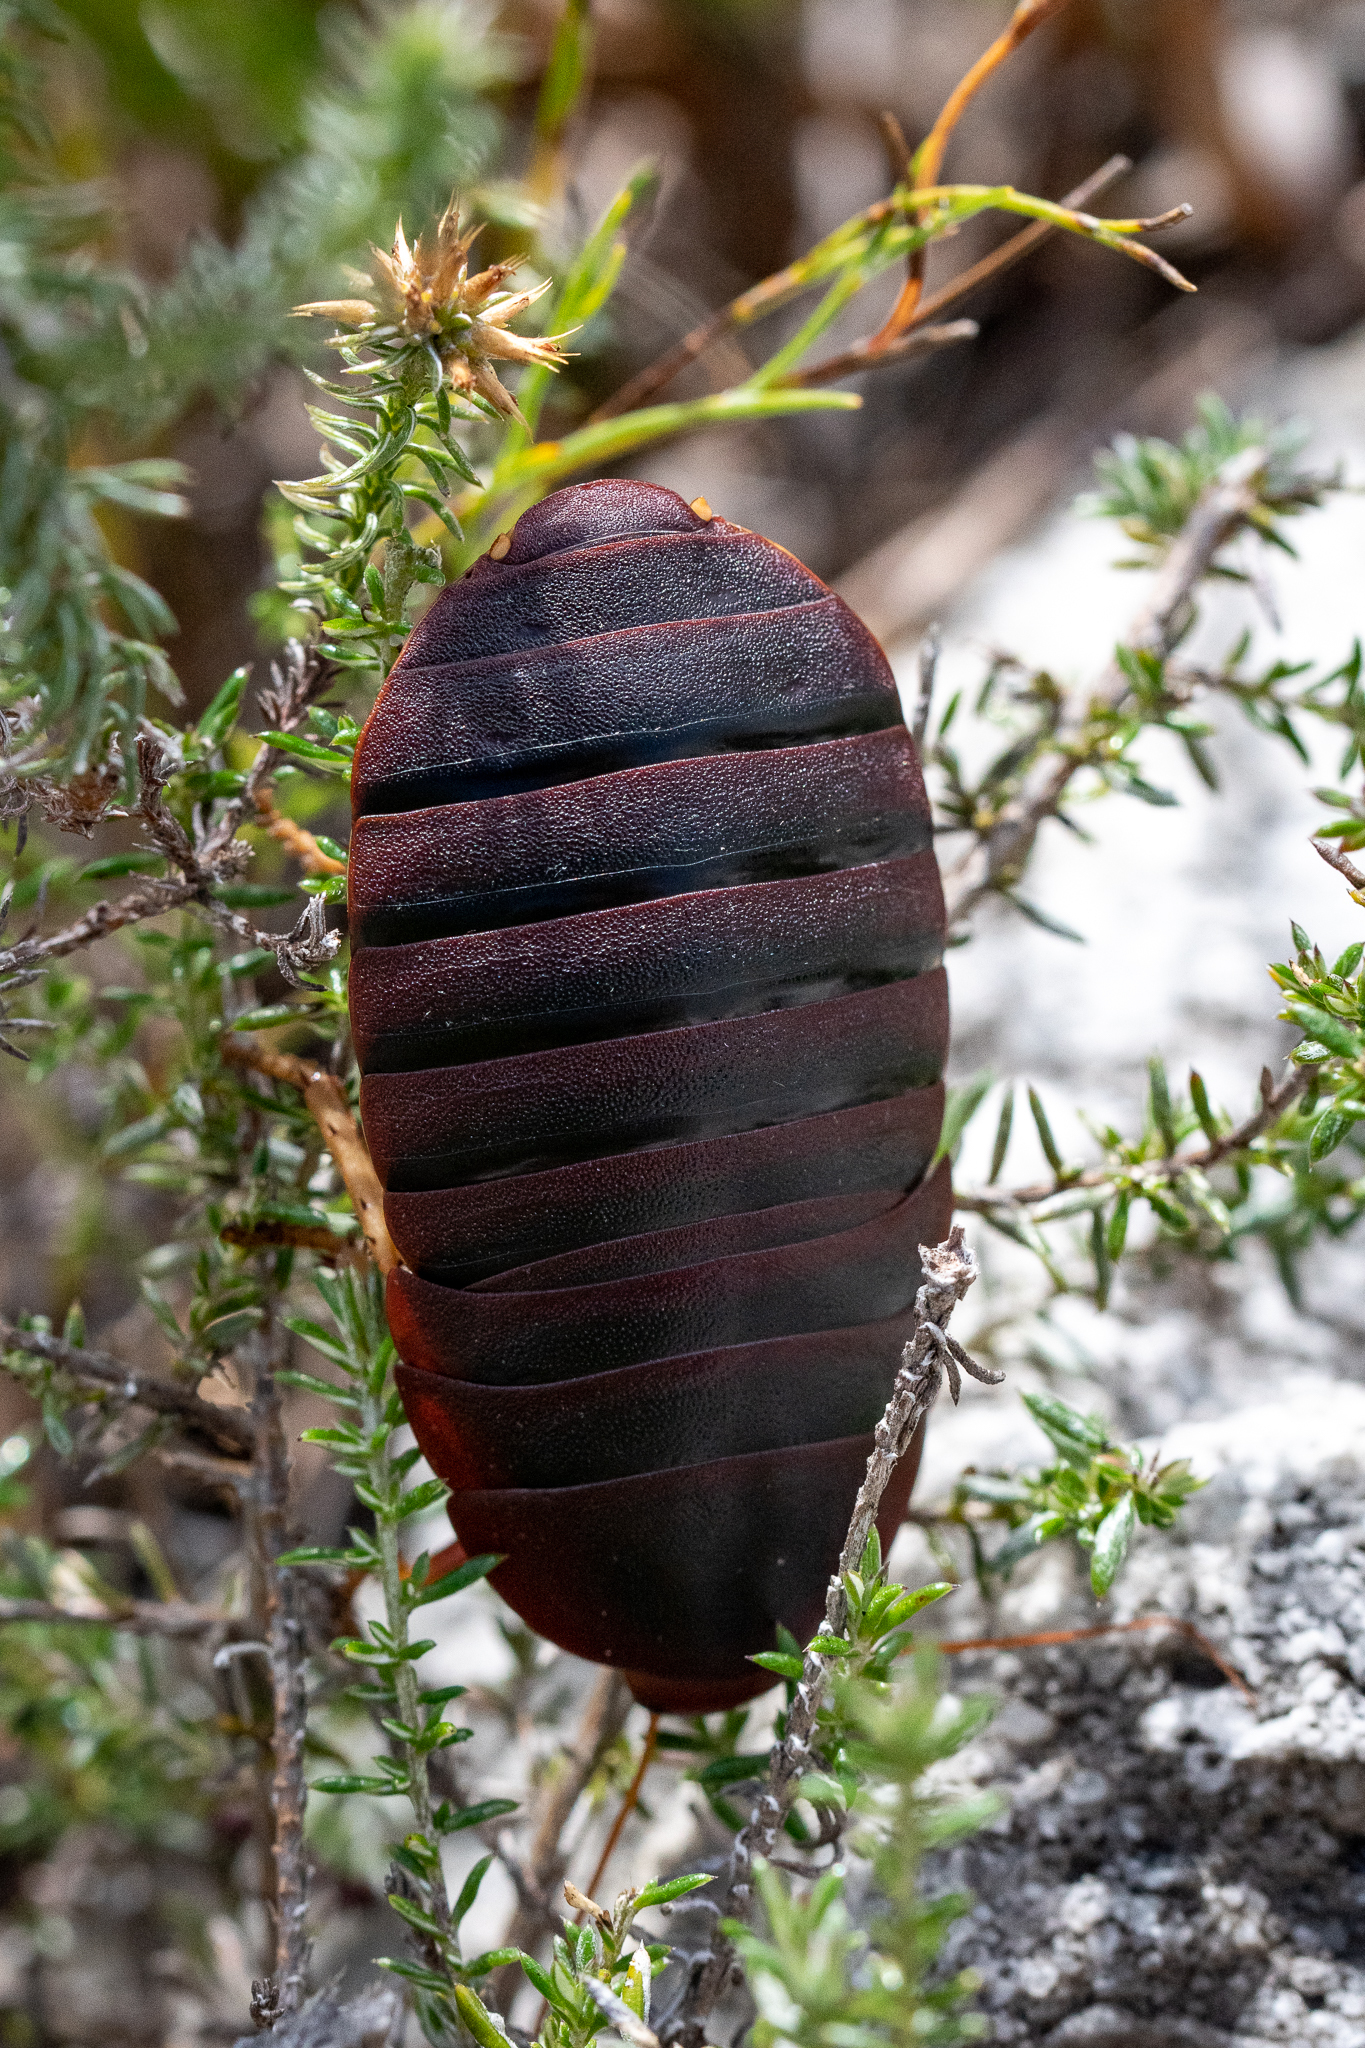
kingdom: Animalia
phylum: Arthropoda
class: Insecta
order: Blattodea
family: Blaberidae
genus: Aptera
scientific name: Aptera fusca
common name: Cape mountain cockroach
